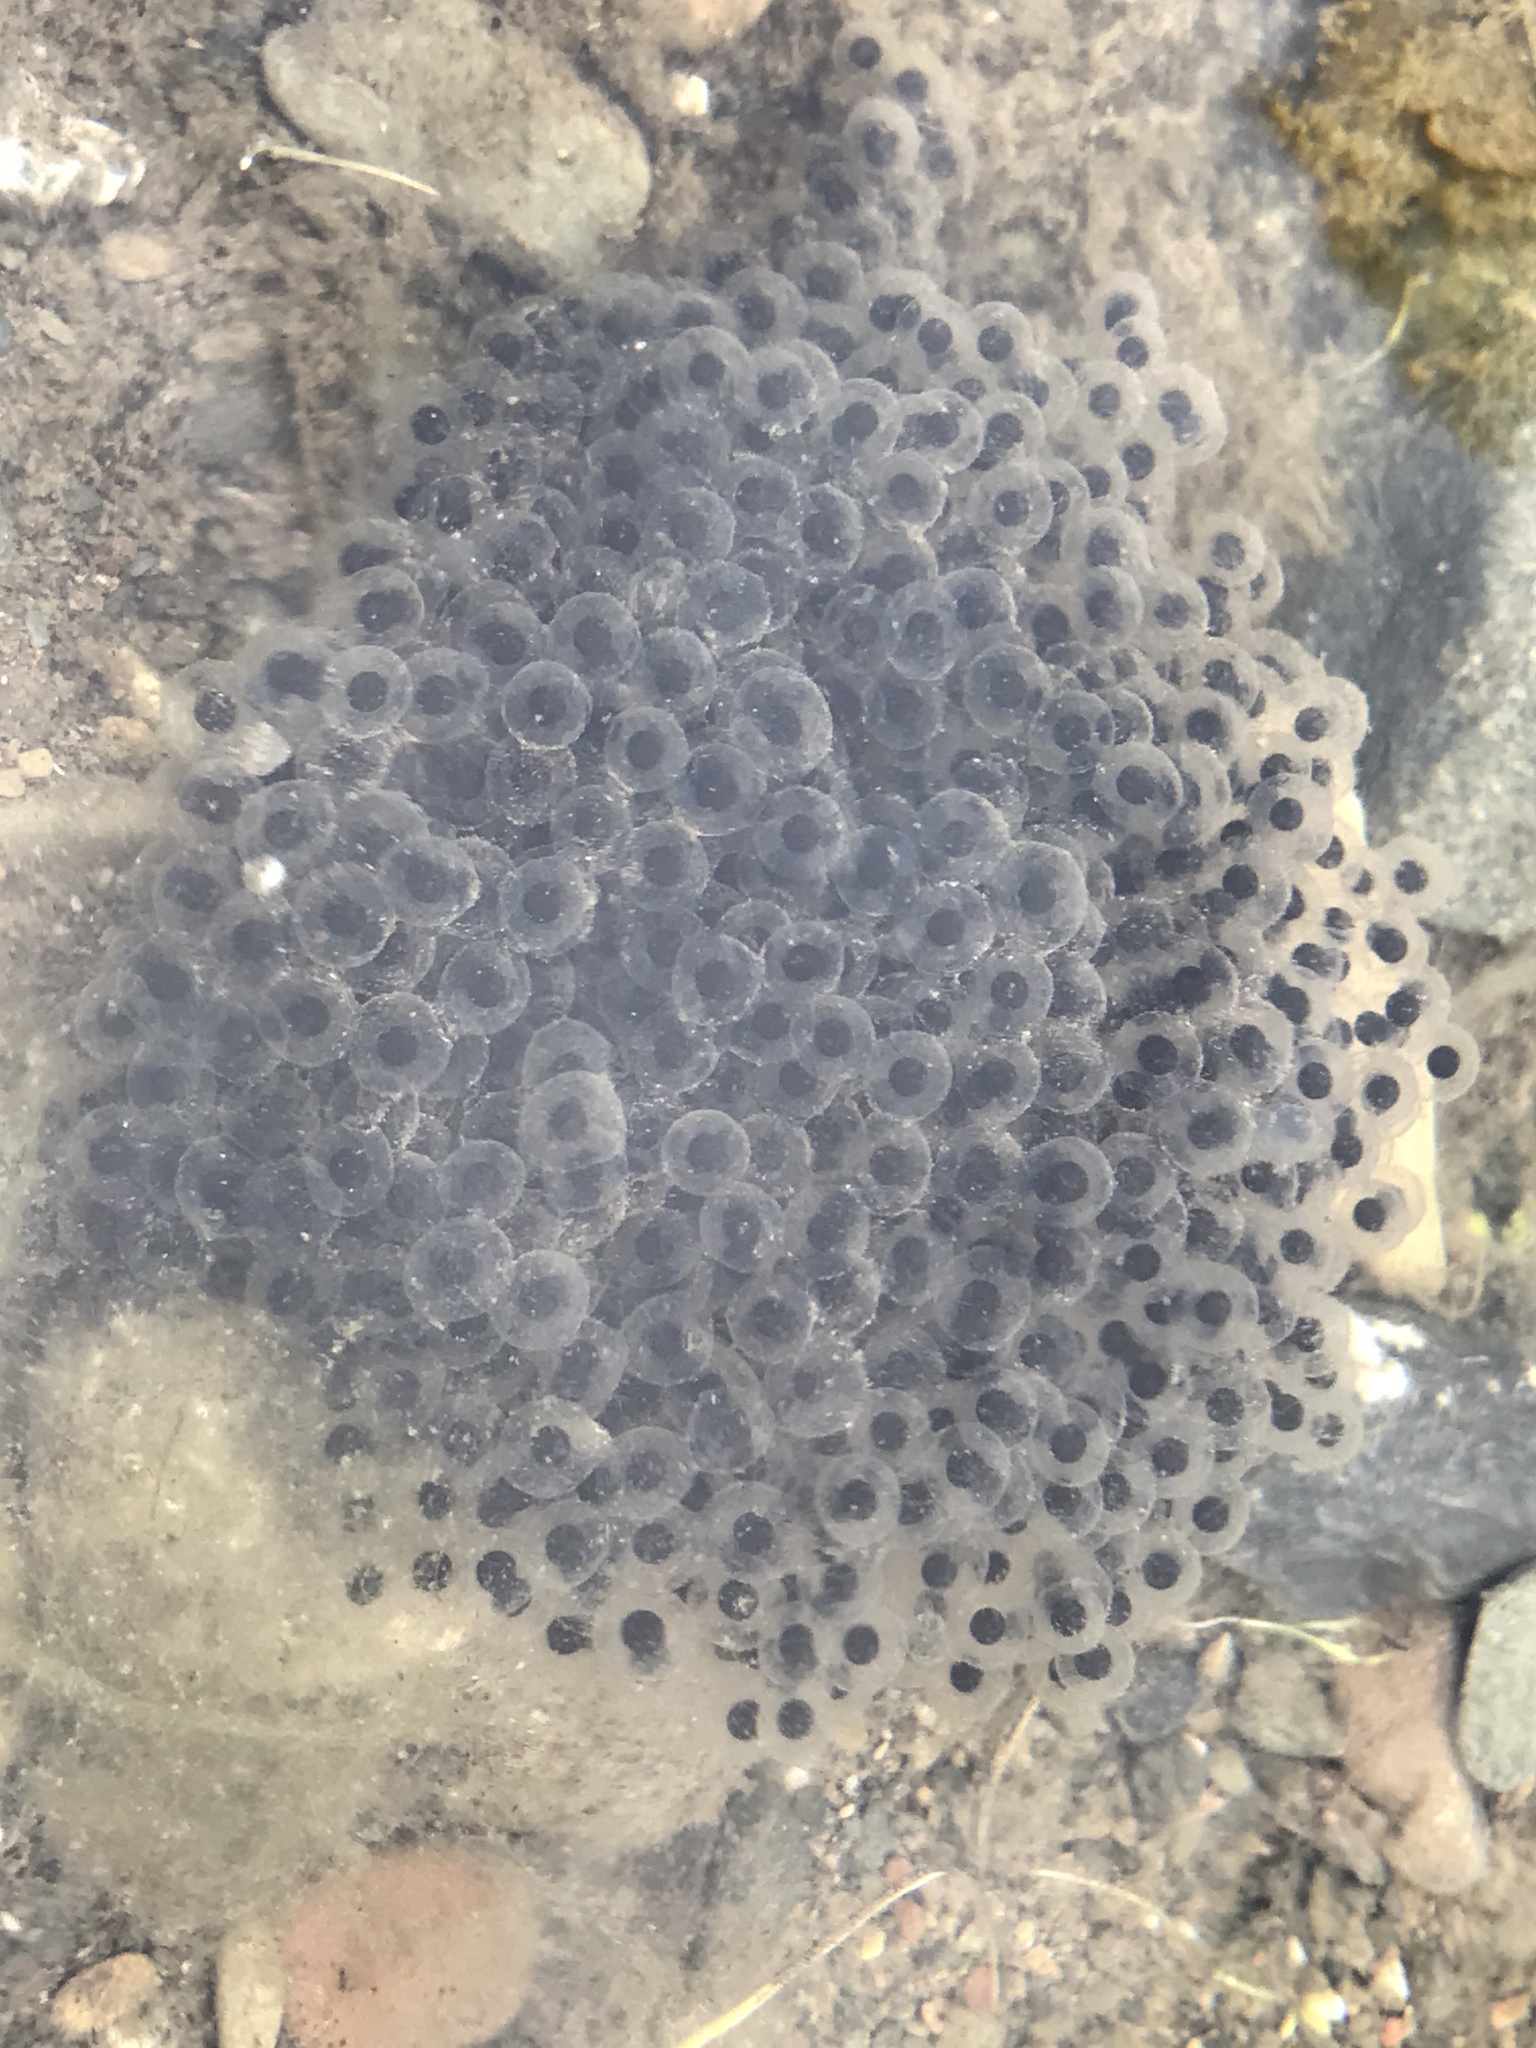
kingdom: Animalia
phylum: Chordata
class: Amphibia
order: Anura
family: Ranidae
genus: Rana
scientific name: Rana boylii
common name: Foothill yellow-legged frog
